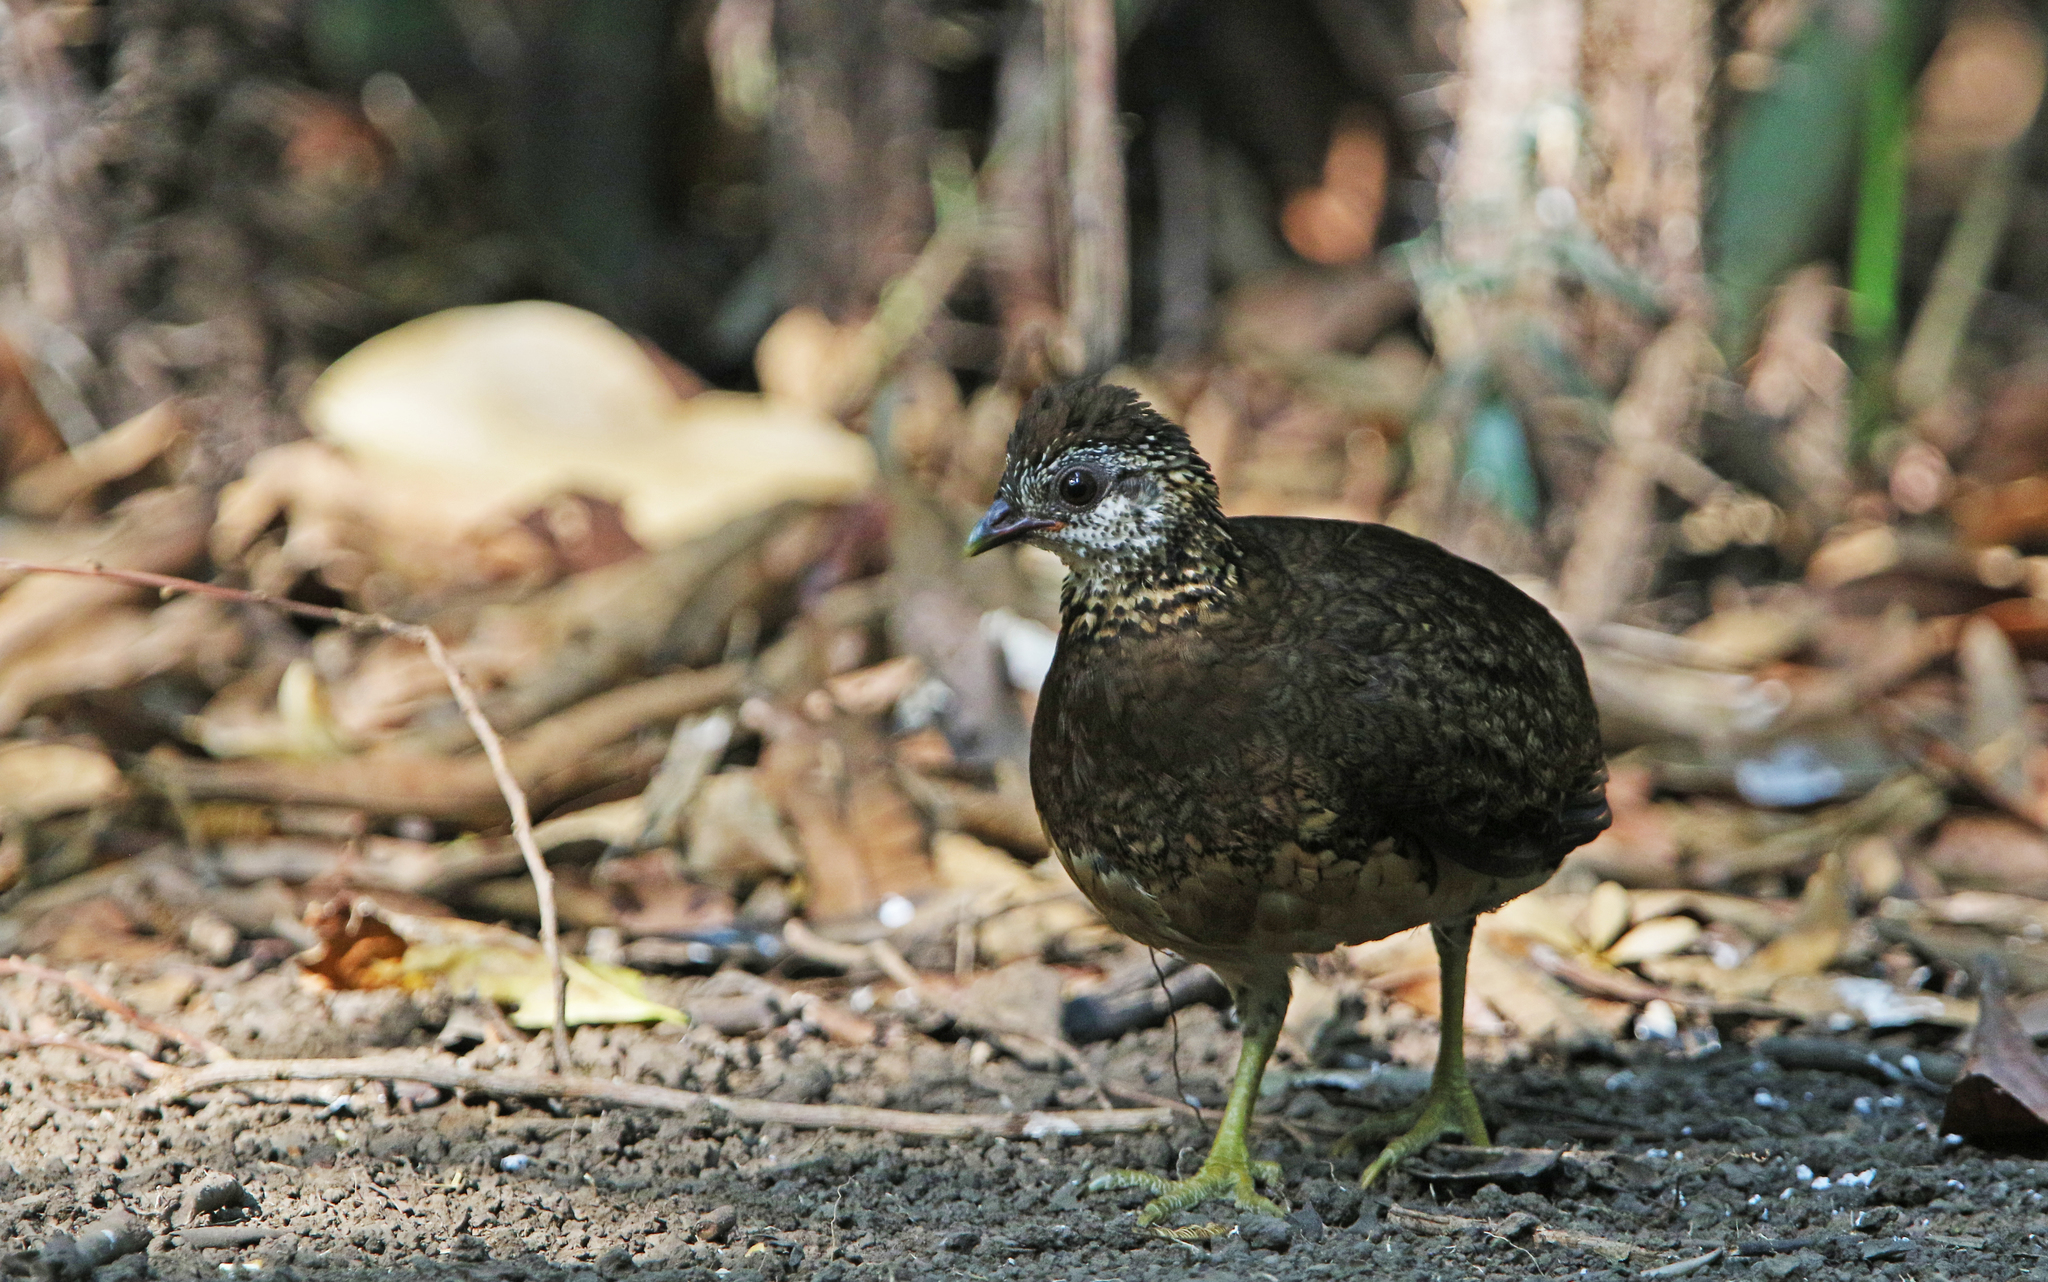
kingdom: Animalia
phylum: Chordata
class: Aves
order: Galliformes
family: Phasianidae
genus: Tropicoperdix
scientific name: Tropicoperdix chloropus
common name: Green-legged partridge
